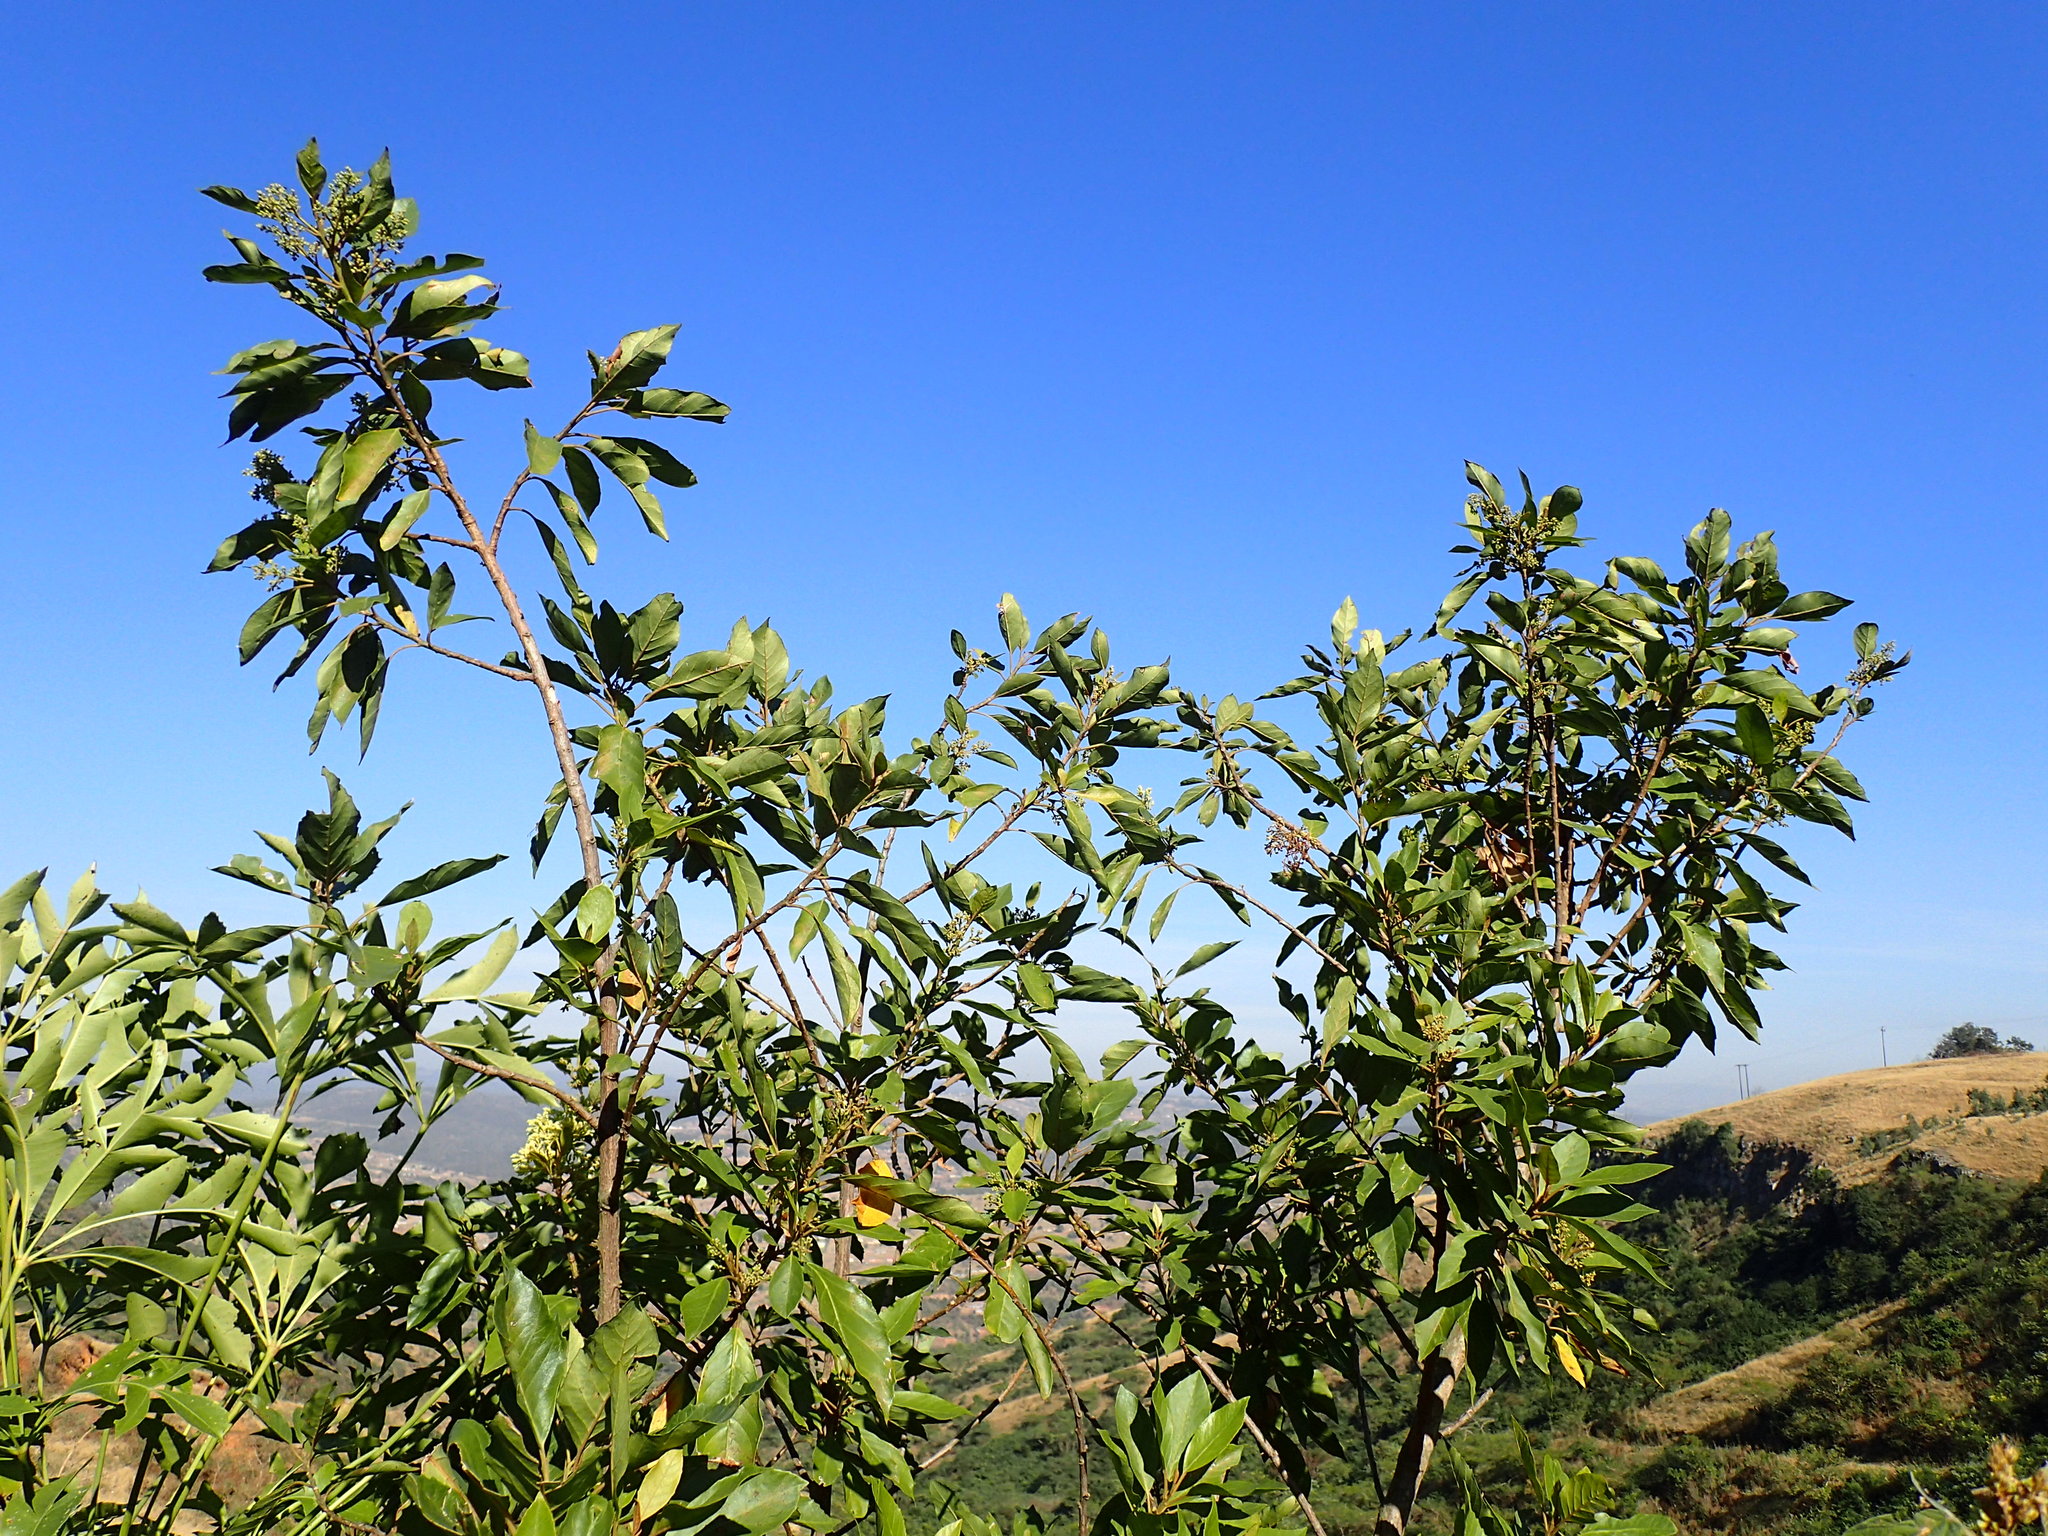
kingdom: Plantae
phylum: Tracheophyta
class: Magnoliopsida
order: Ericales
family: Primulaceae
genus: Maesa
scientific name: Maesa lanceolata
